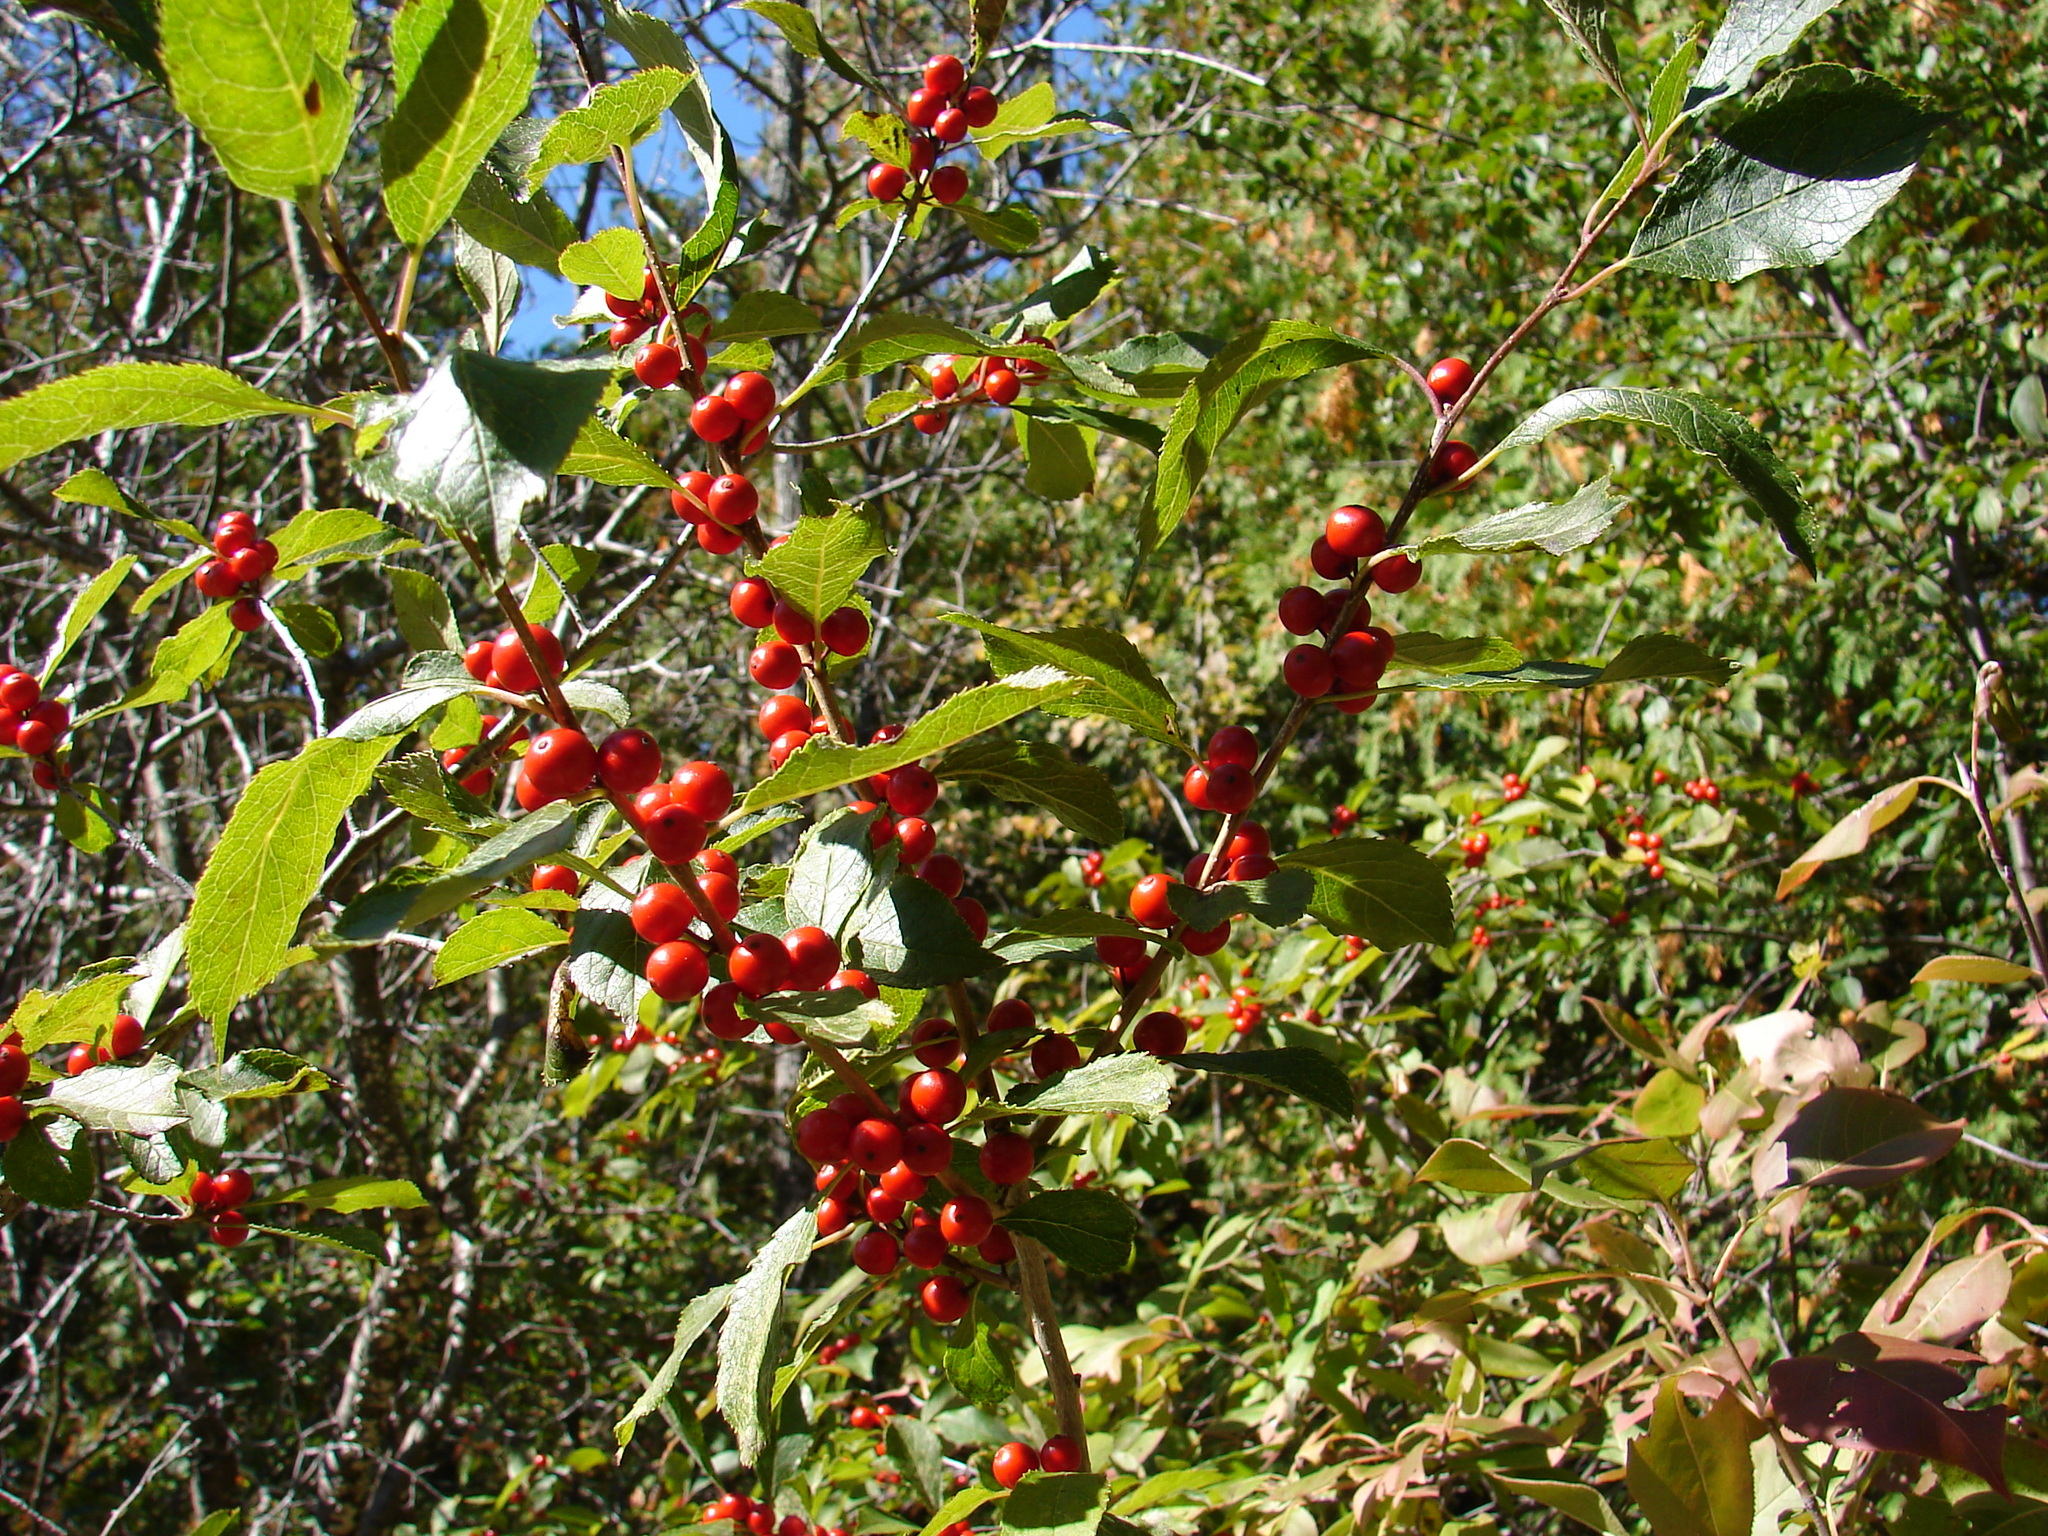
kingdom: Plantae
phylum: Tracheophyta
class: Magnoliopsida
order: Aquifoliales
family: Aquifoliaceae
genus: Ilex
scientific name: Ilex verticillata
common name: Virginia winterberry
